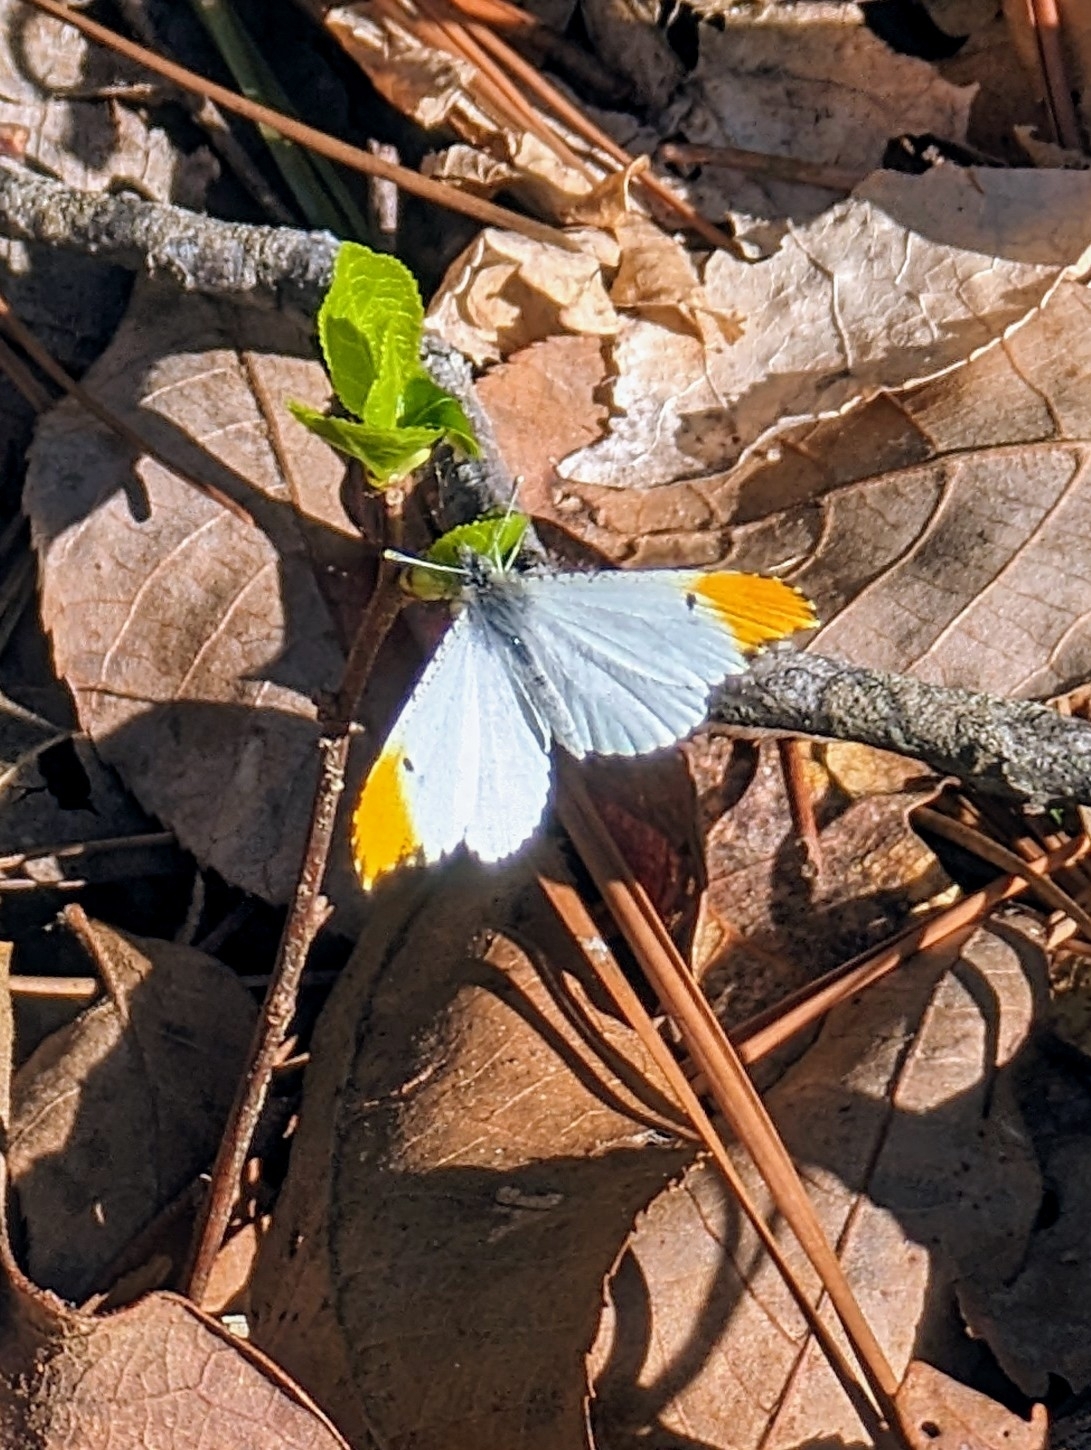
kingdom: Animalia
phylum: Arthropoda
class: Insecta
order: Lepidoptera
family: Pieridae
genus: Anthocharis
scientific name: Anthocharis midea
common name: Falcate orangetip
